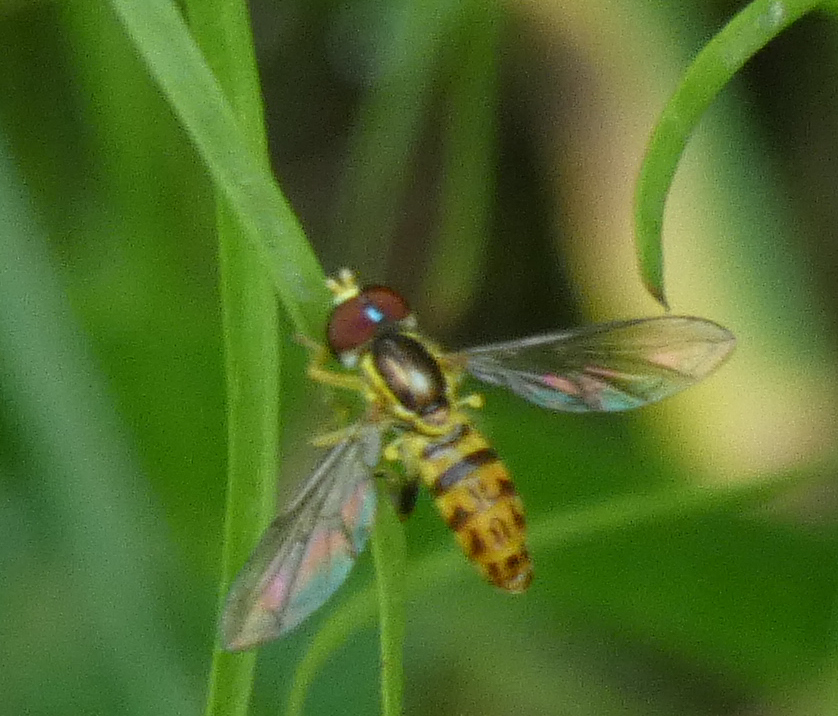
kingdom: Animalia
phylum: Arthropoda
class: Insecta
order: Diptera
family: Syrphidae
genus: Toxomerus
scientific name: Toxomerus geminatus
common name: Eastern calligrapher
